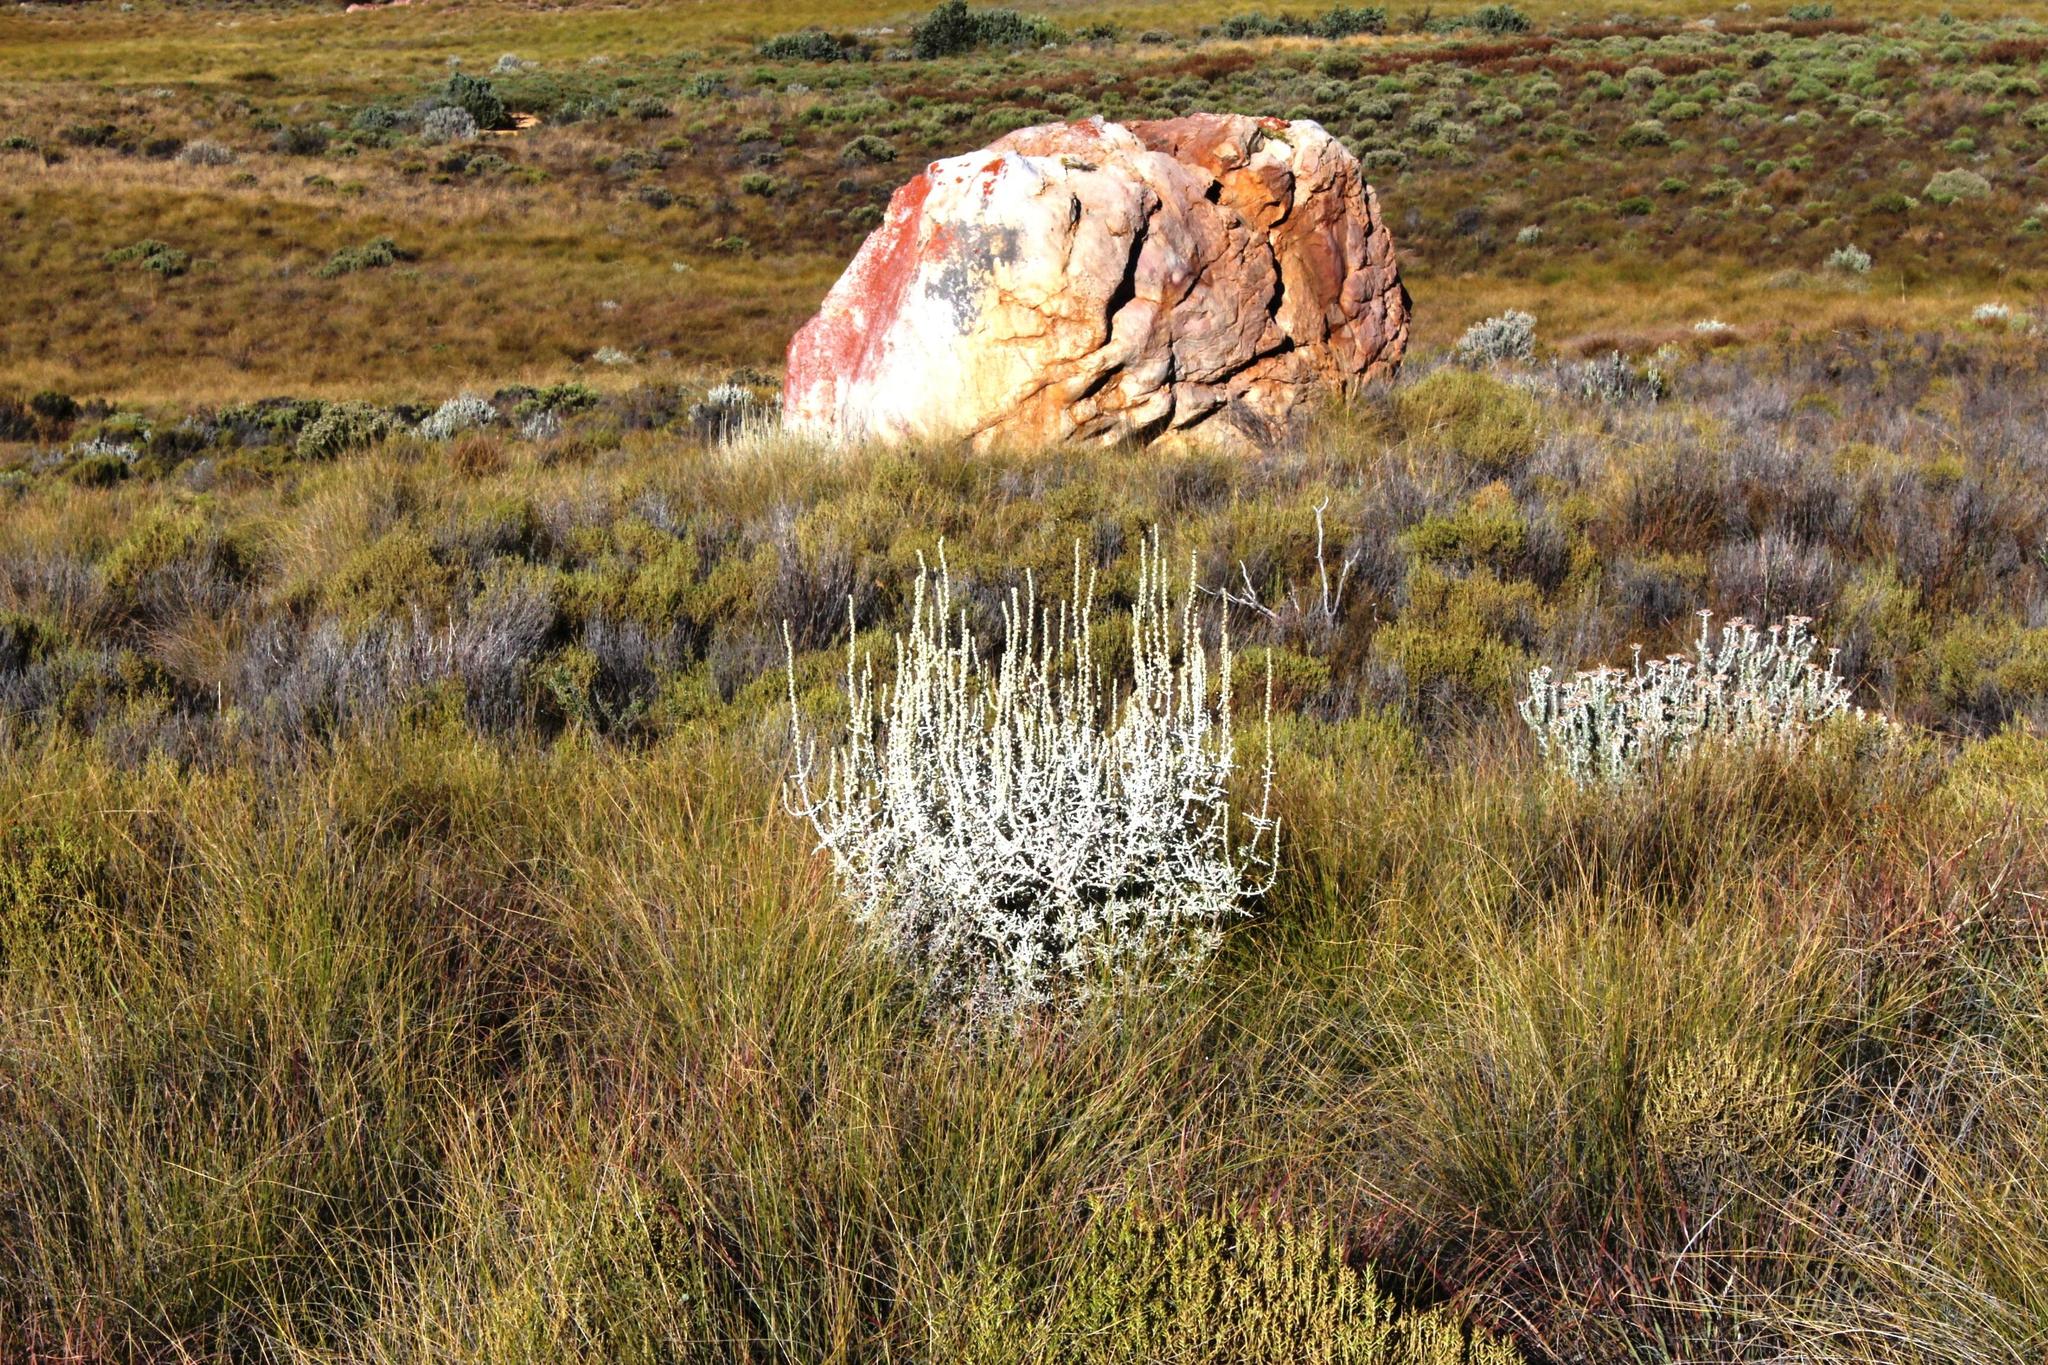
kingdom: Plantae
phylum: Tracheophyta
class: Magnoliopsida
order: Asterales
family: Asteraceae
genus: Seriphium
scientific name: Seriphium plumosum
